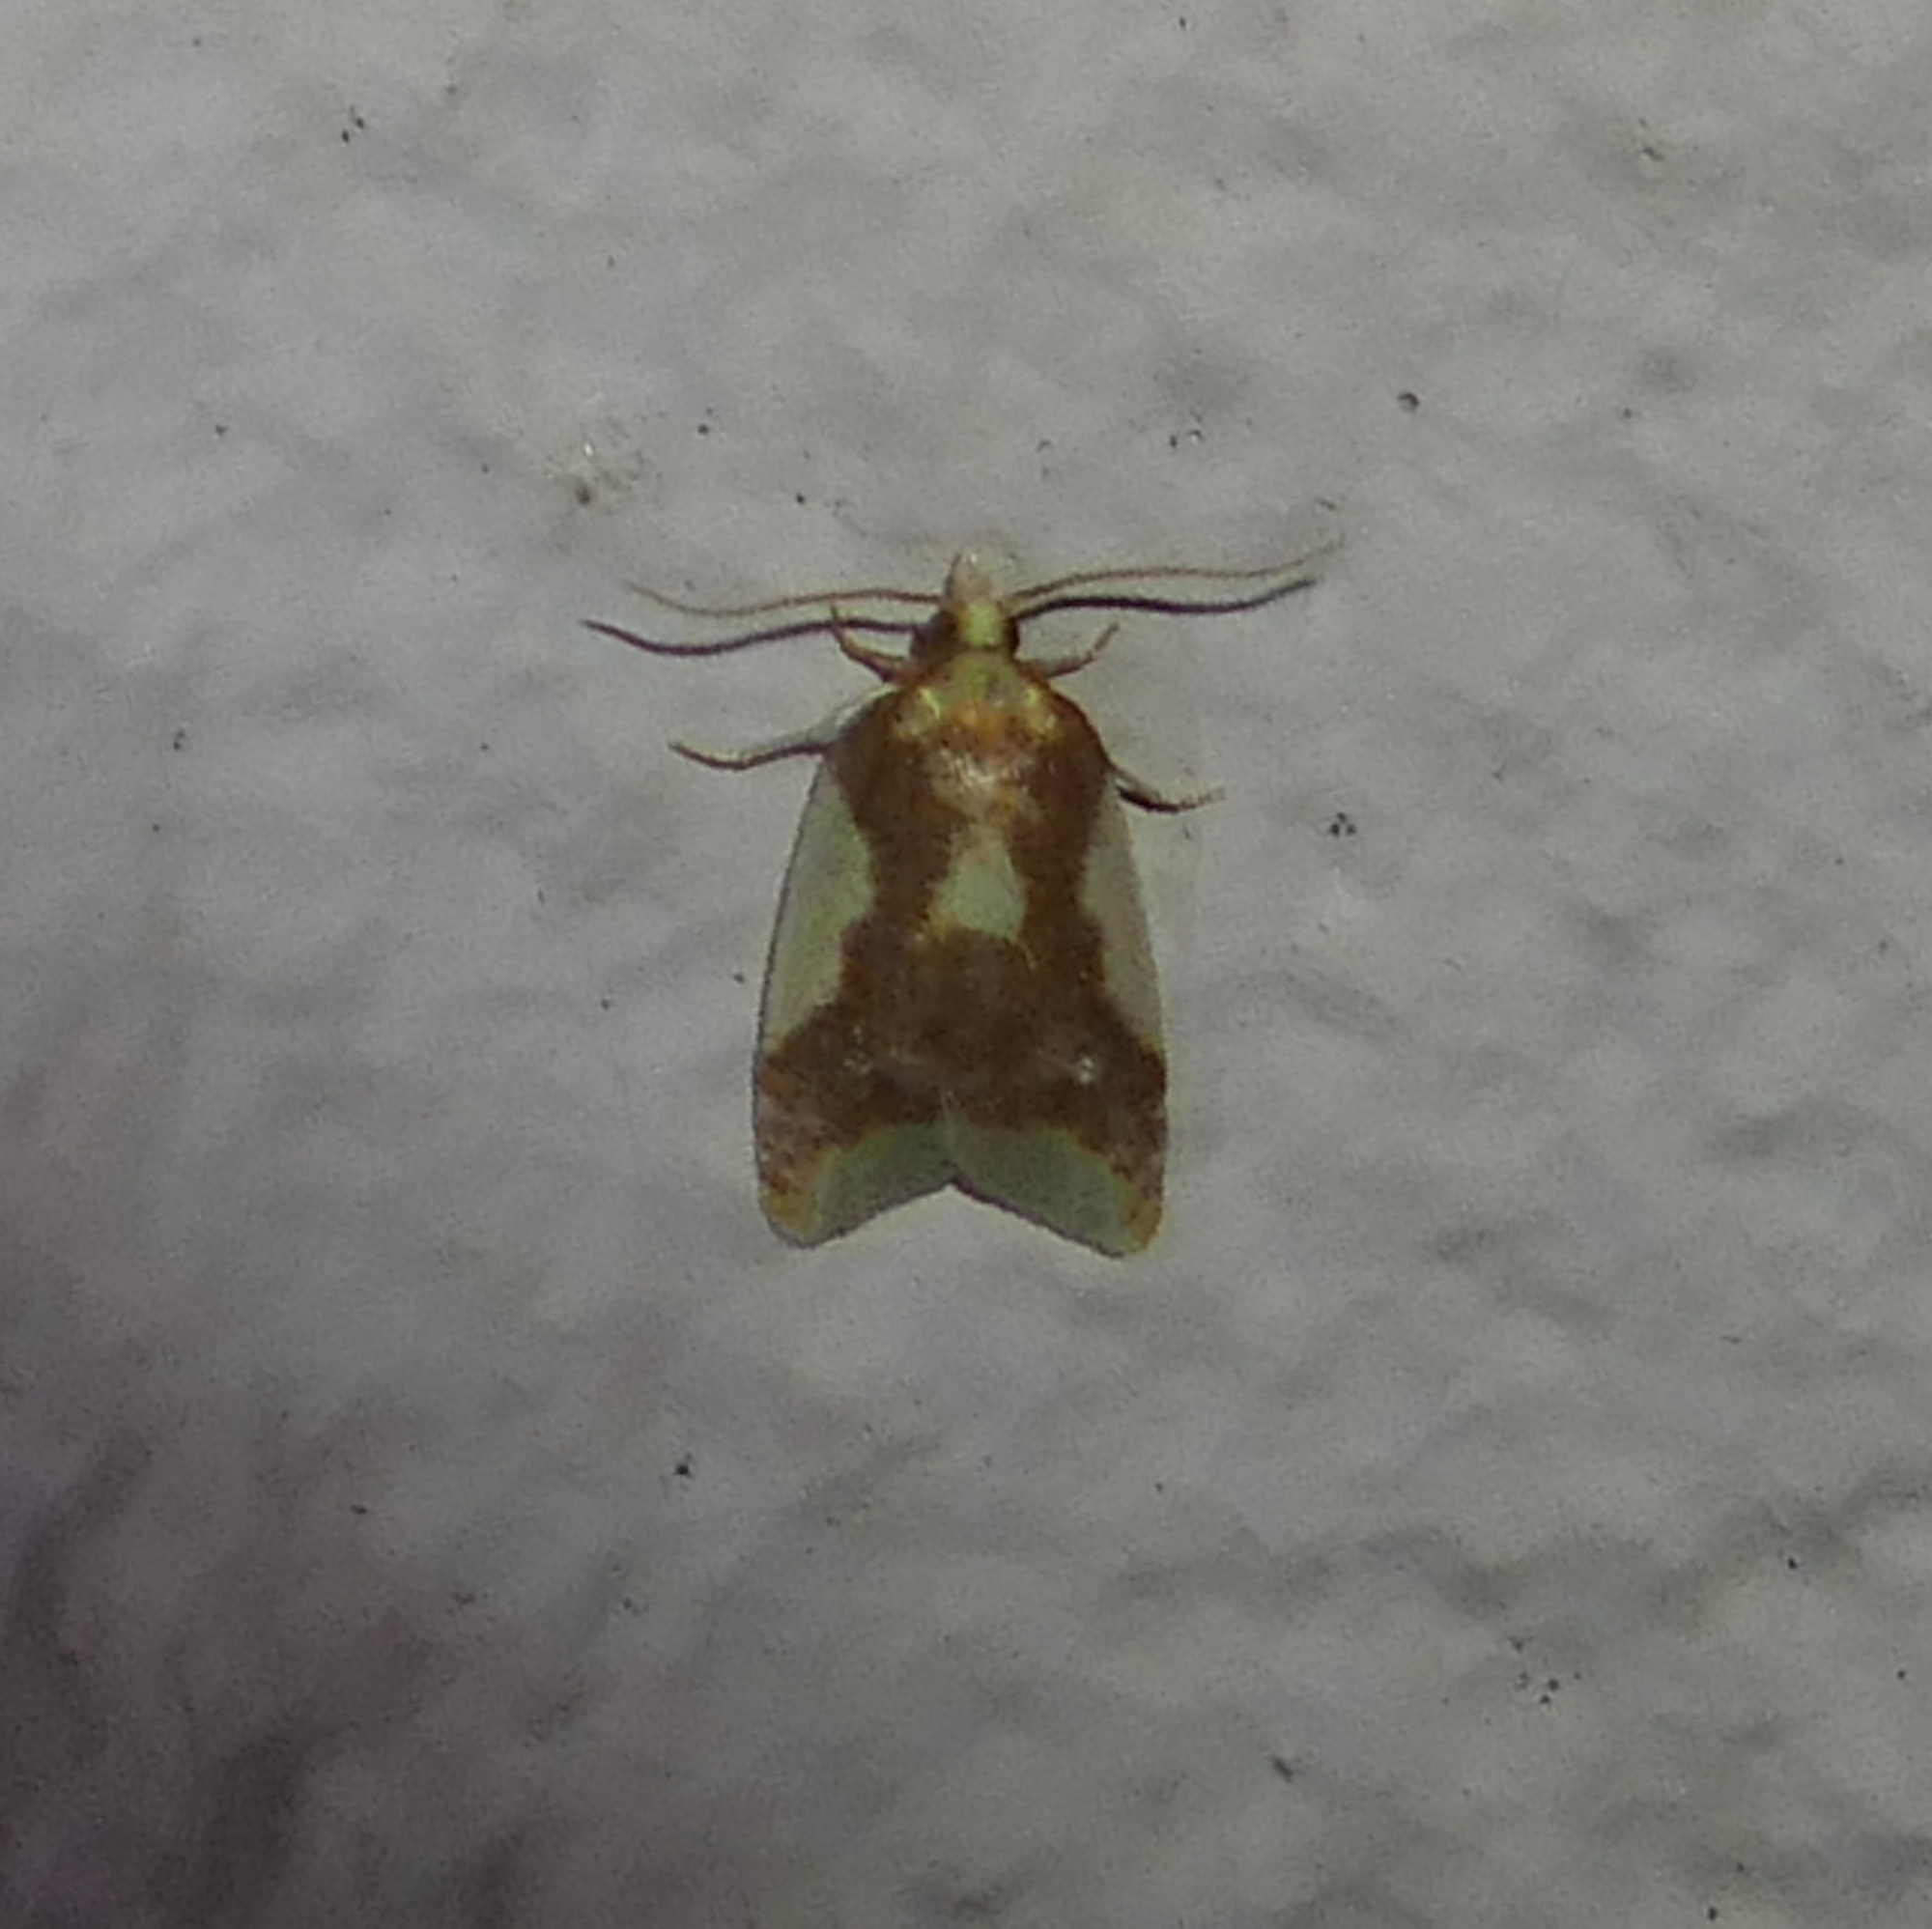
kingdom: Animalia
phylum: Arthropoda
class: Insecta
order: Lepidoptera
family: Tortricidae
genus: Sparganothis
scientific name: Sparganothis pulcherrimana
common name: Beautiful sparganothis
